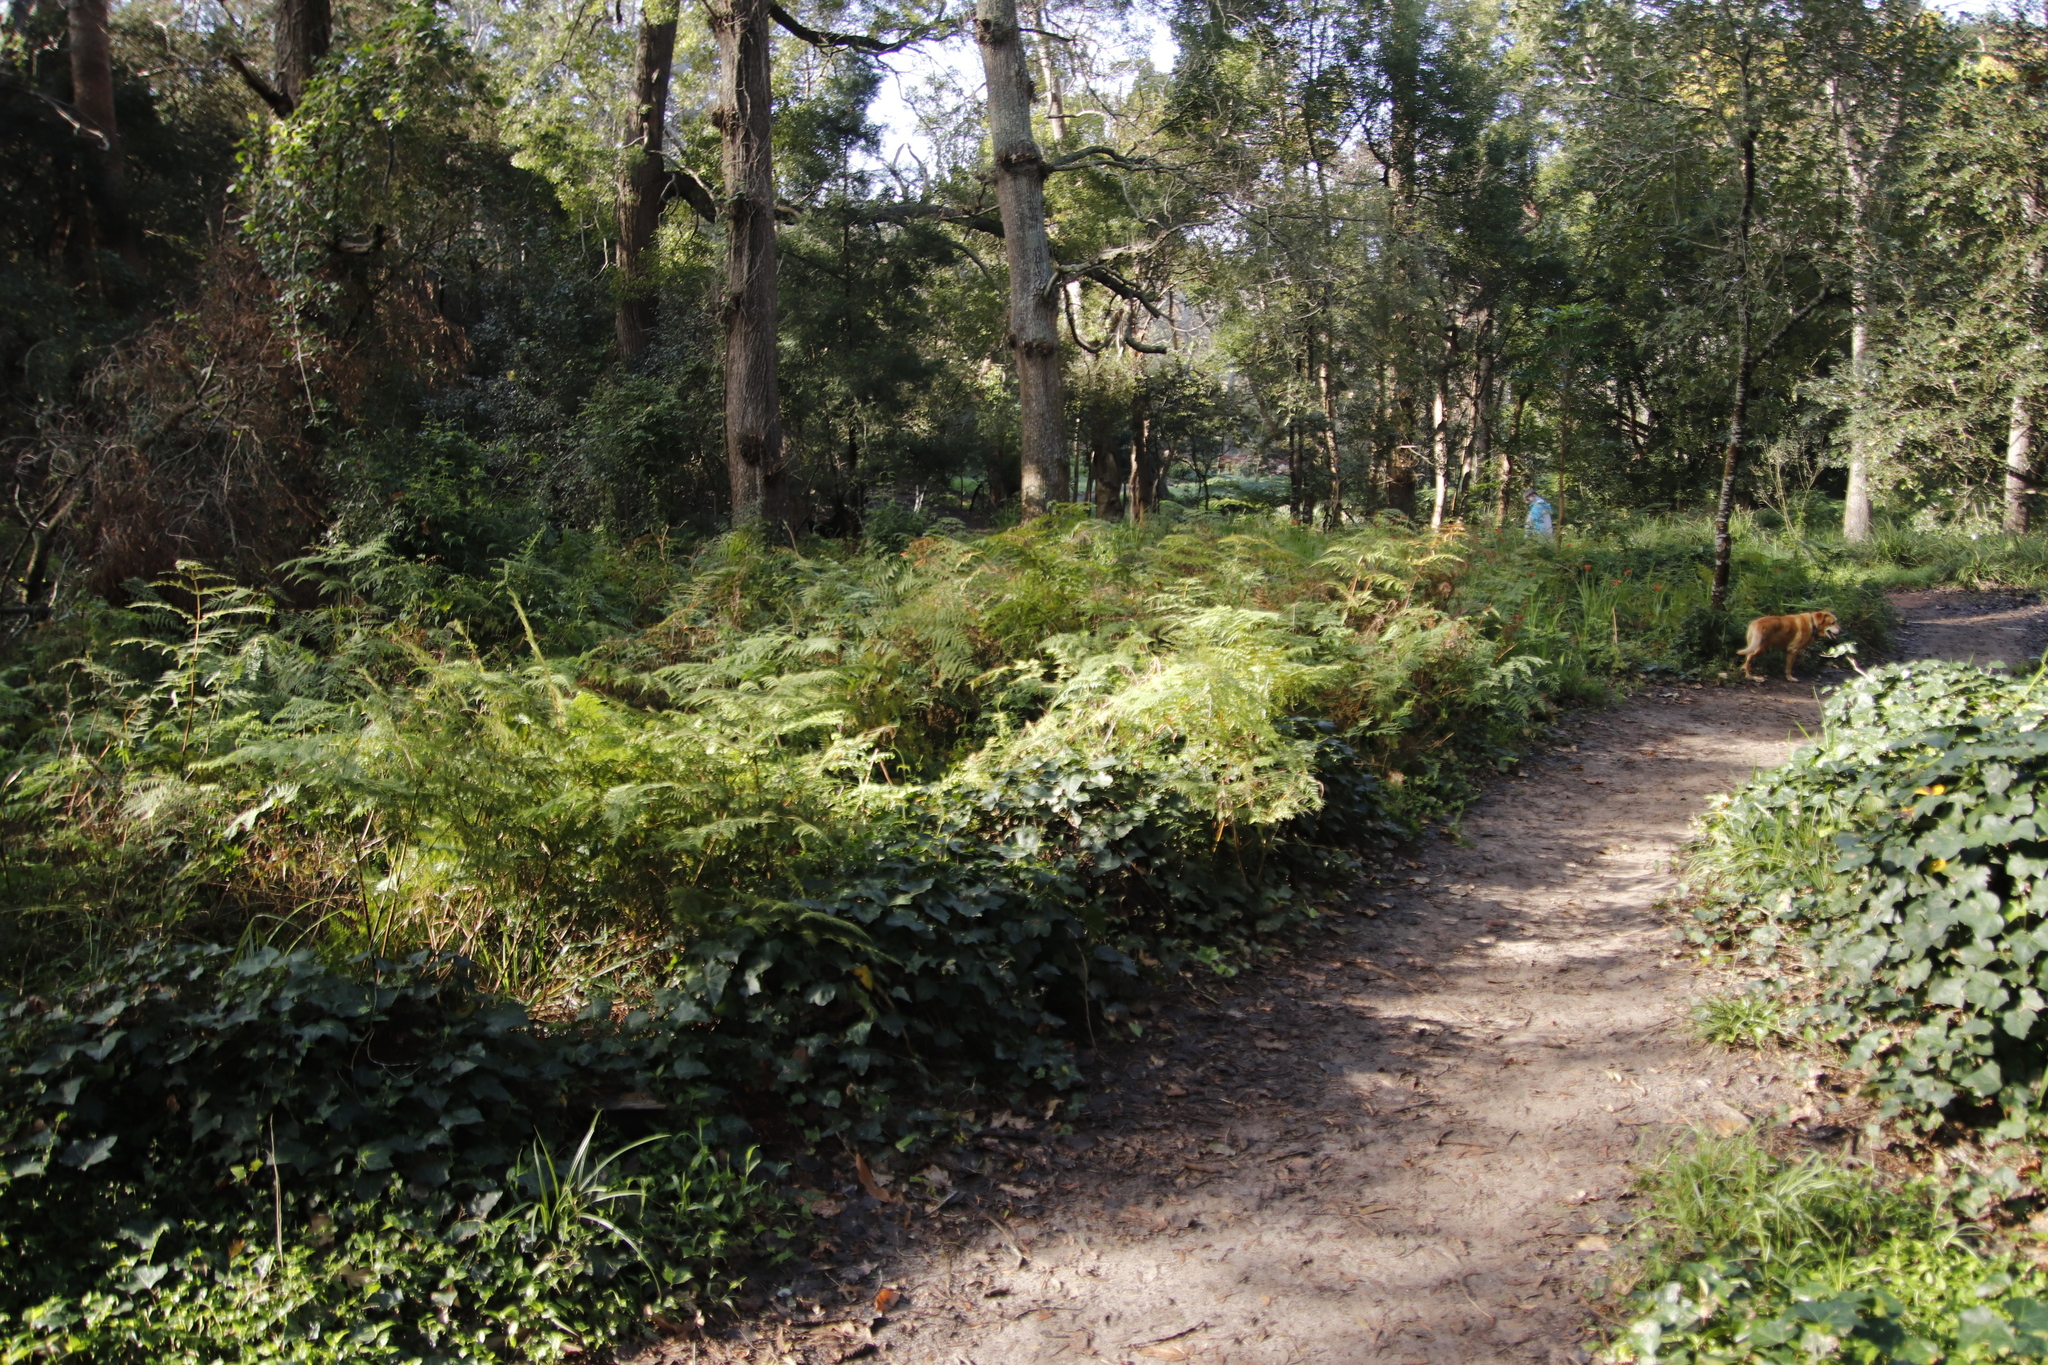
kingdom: Plantae
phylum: Tracheophyta
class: Polypodiopsida
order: Polypodiales
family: Dennstaedtiaceae
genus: Pteridium
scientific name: Pteridium aquilinum
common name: Bracken
